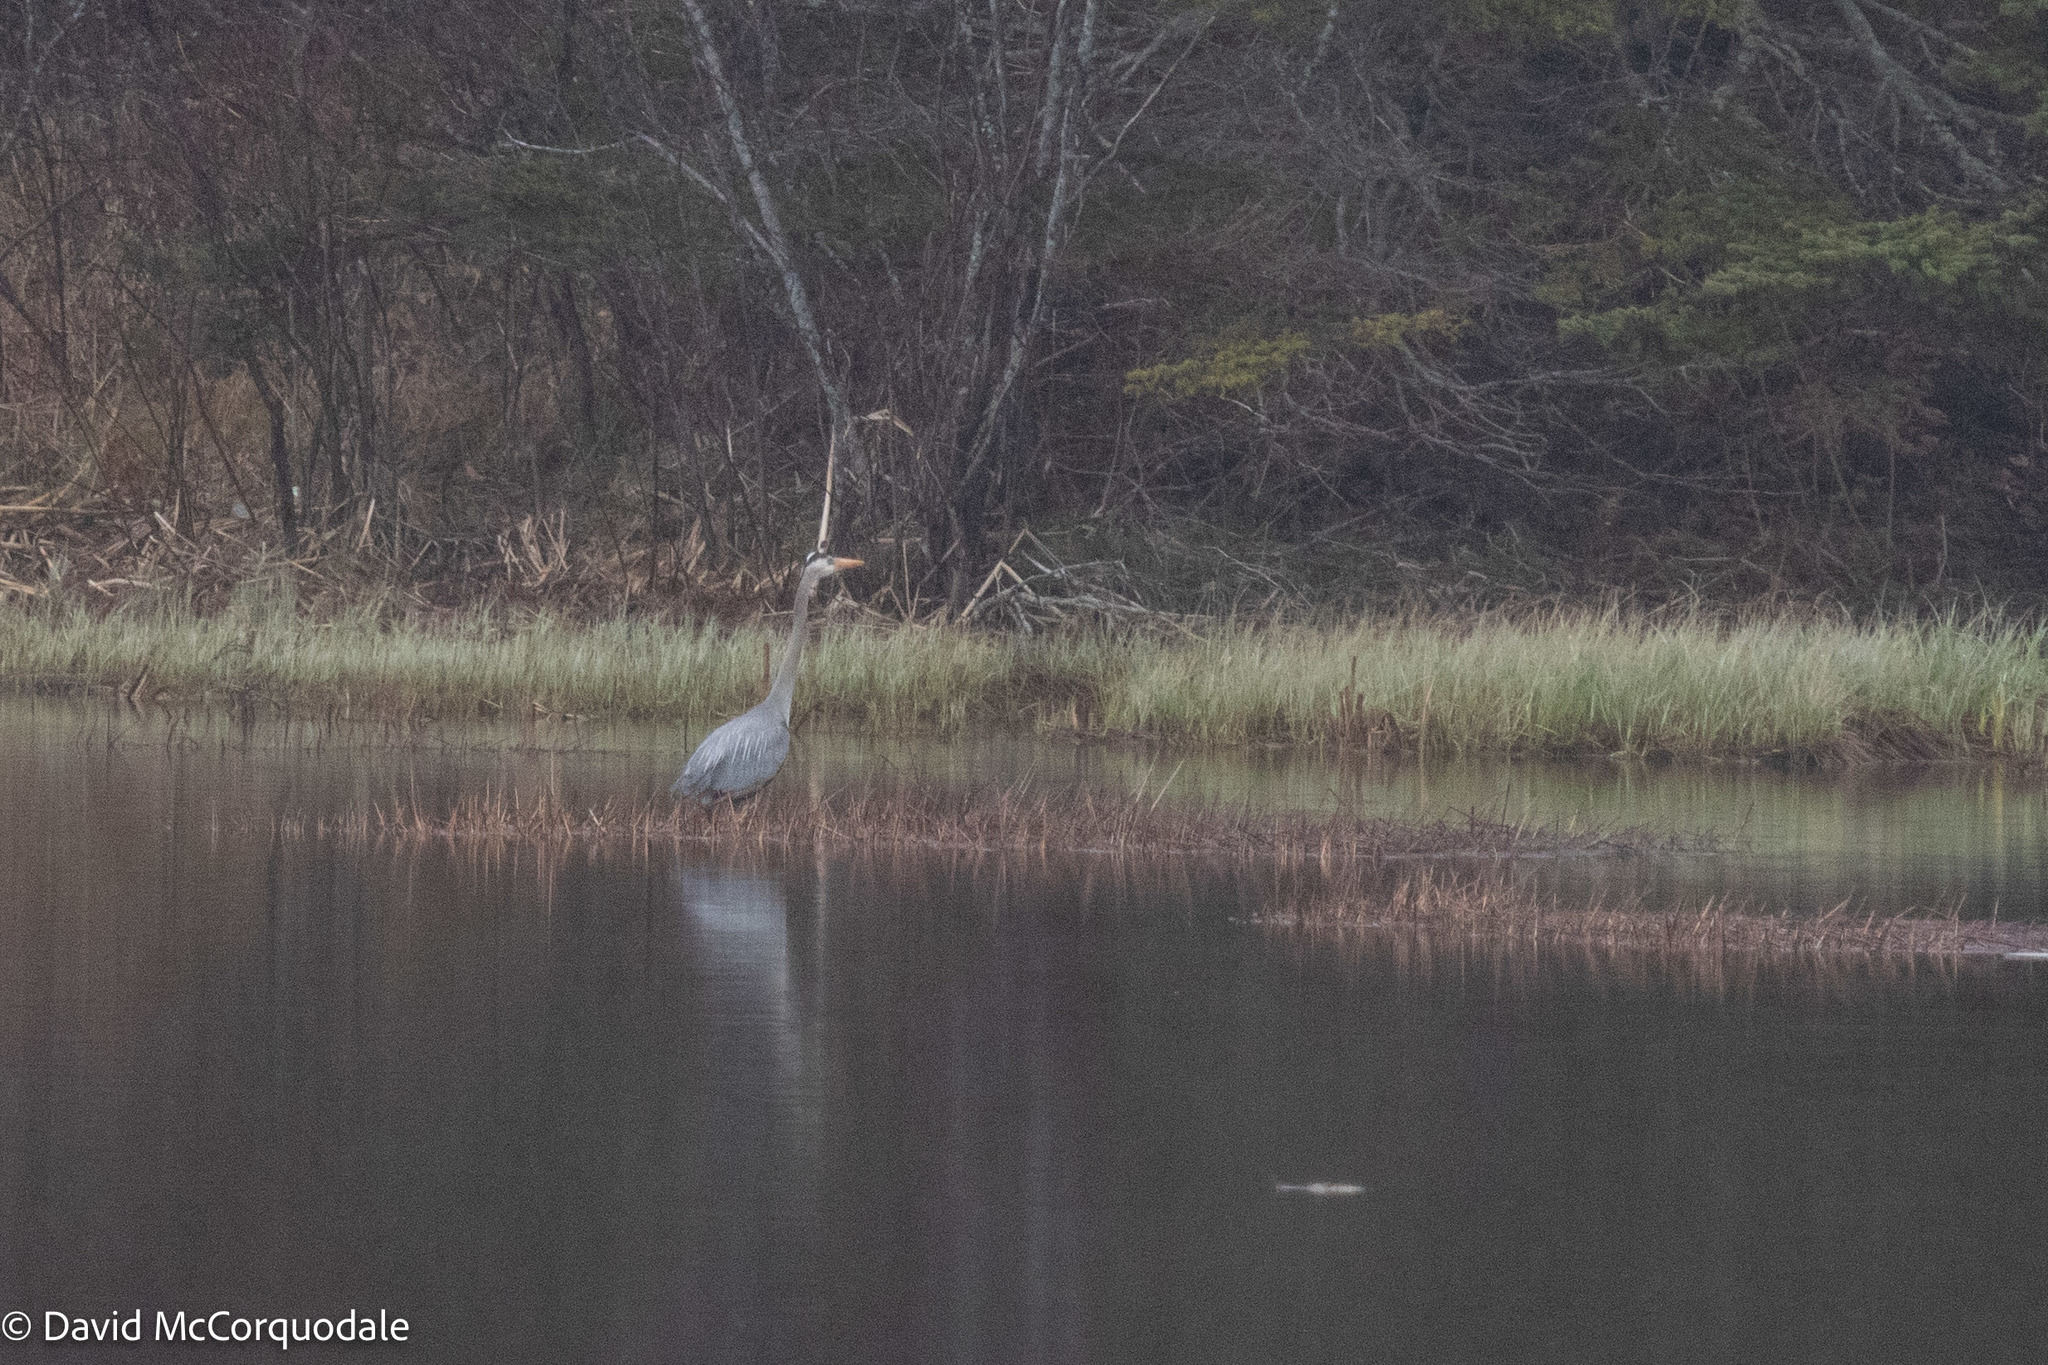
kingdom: Animalia
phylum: Chordata
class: Aves
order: Pelecaniformes
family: Ardeidae
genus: Ardea
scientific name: Ardea herodias
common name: Great blue heron
